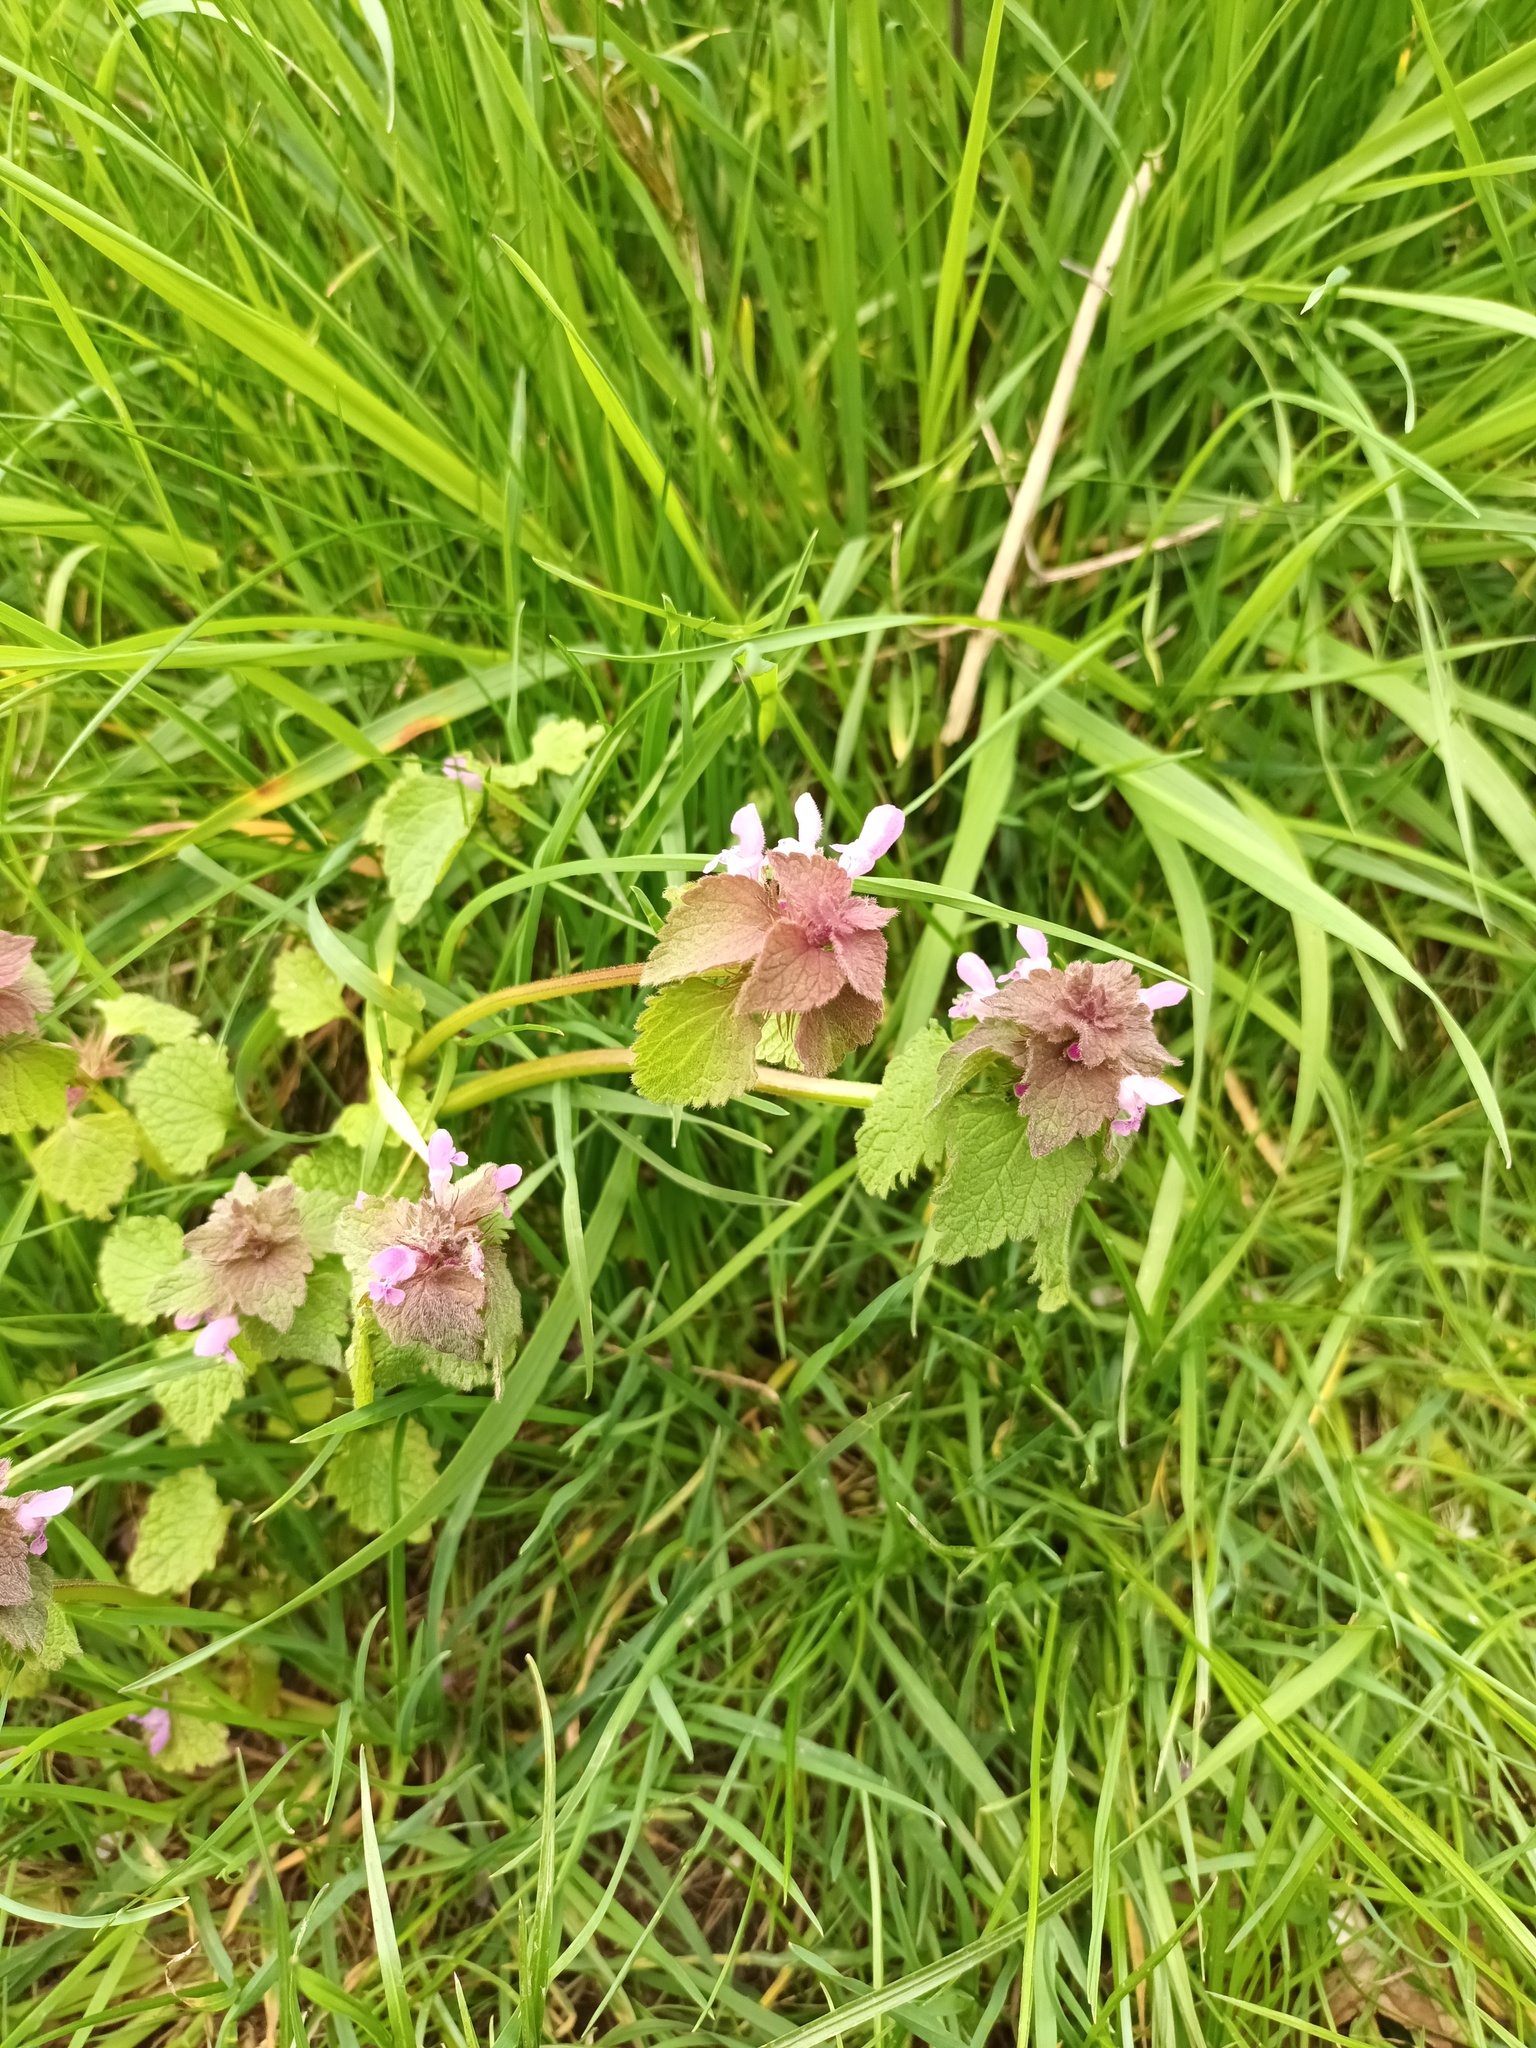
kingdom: Plantae
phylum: Tracheophyta
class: Magnoliopsida
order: Lamiales
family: Lamiaceae
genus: Lamium
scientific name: Lamium purpureum
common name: Red dead-nettle
